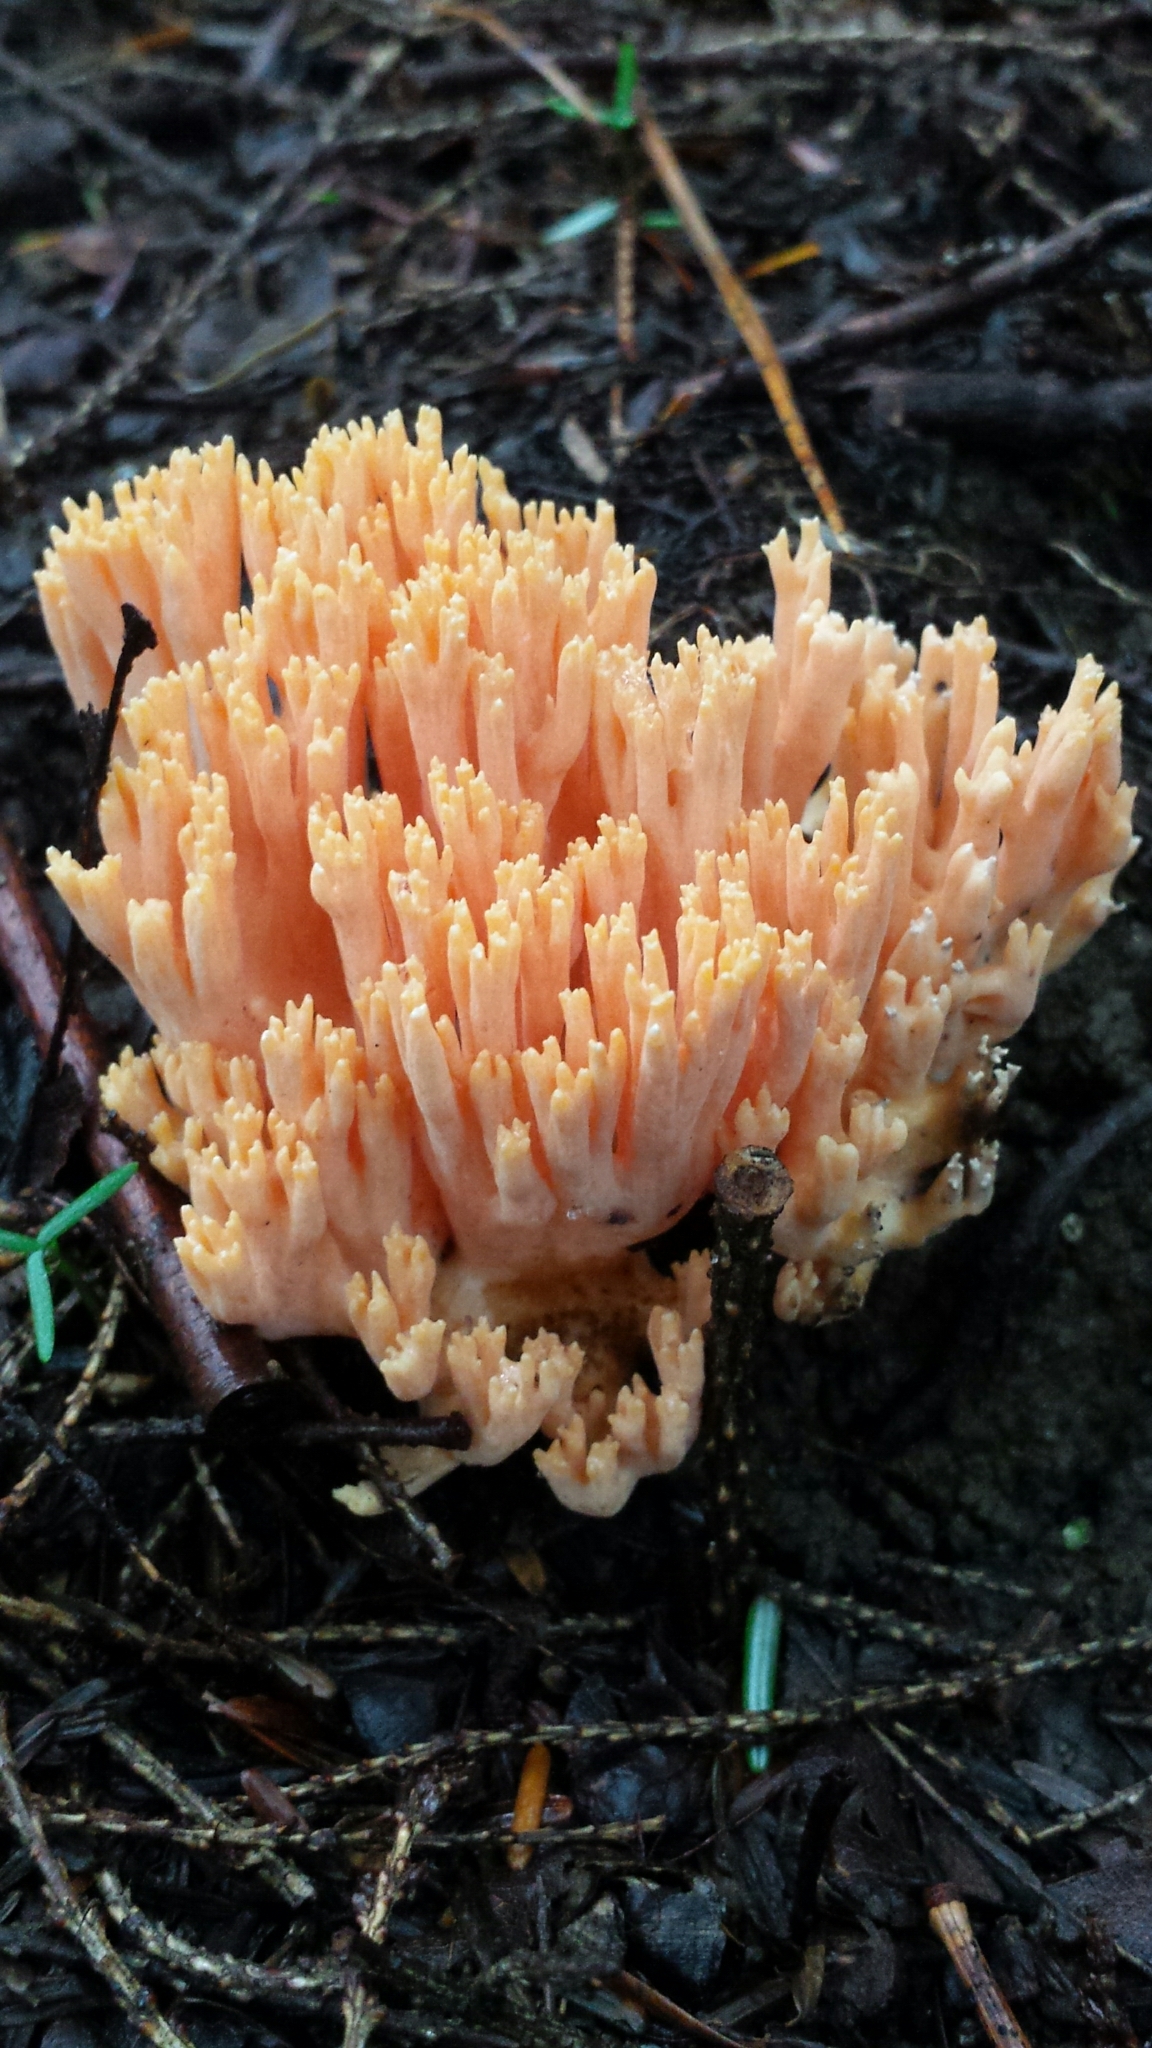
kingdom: Fungi
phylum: Basidiomycota
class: Agaricomycetes
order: Gomphales
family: Gomphaceae
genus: Ramaria
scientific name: Ramaria
